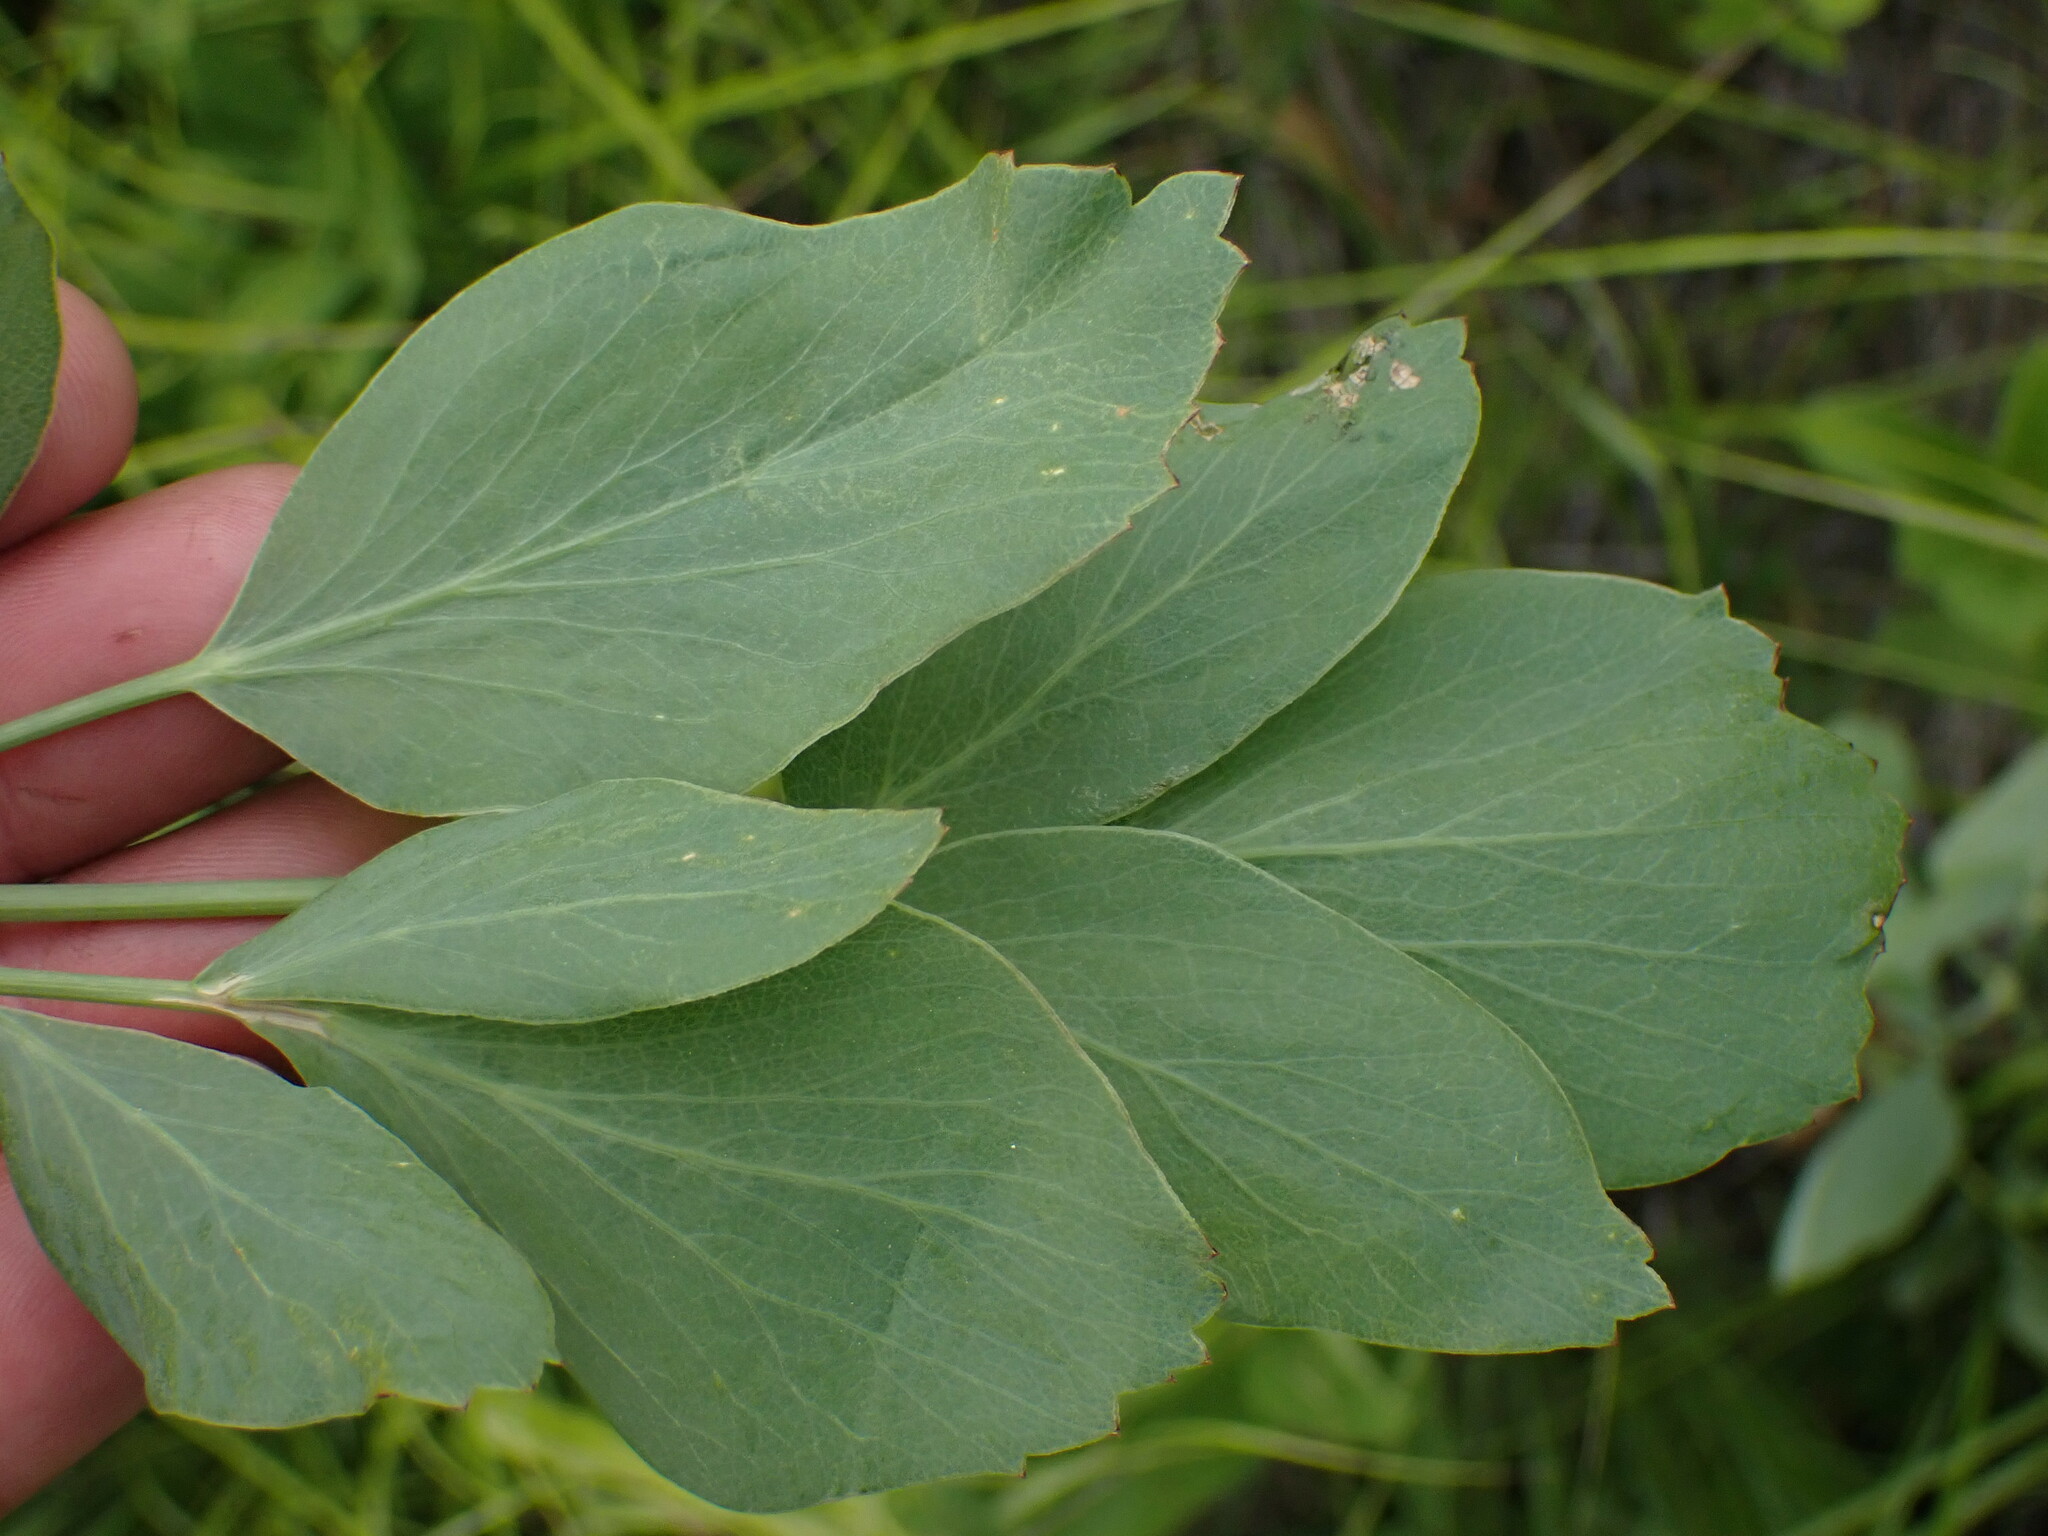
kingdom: Plantae
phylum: Tracheophyta
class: Magnoliopsida
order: Apiales
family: Apiaceae
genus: Lomatium
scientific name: Lomatium nudicaule
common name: Pestle lomatium
